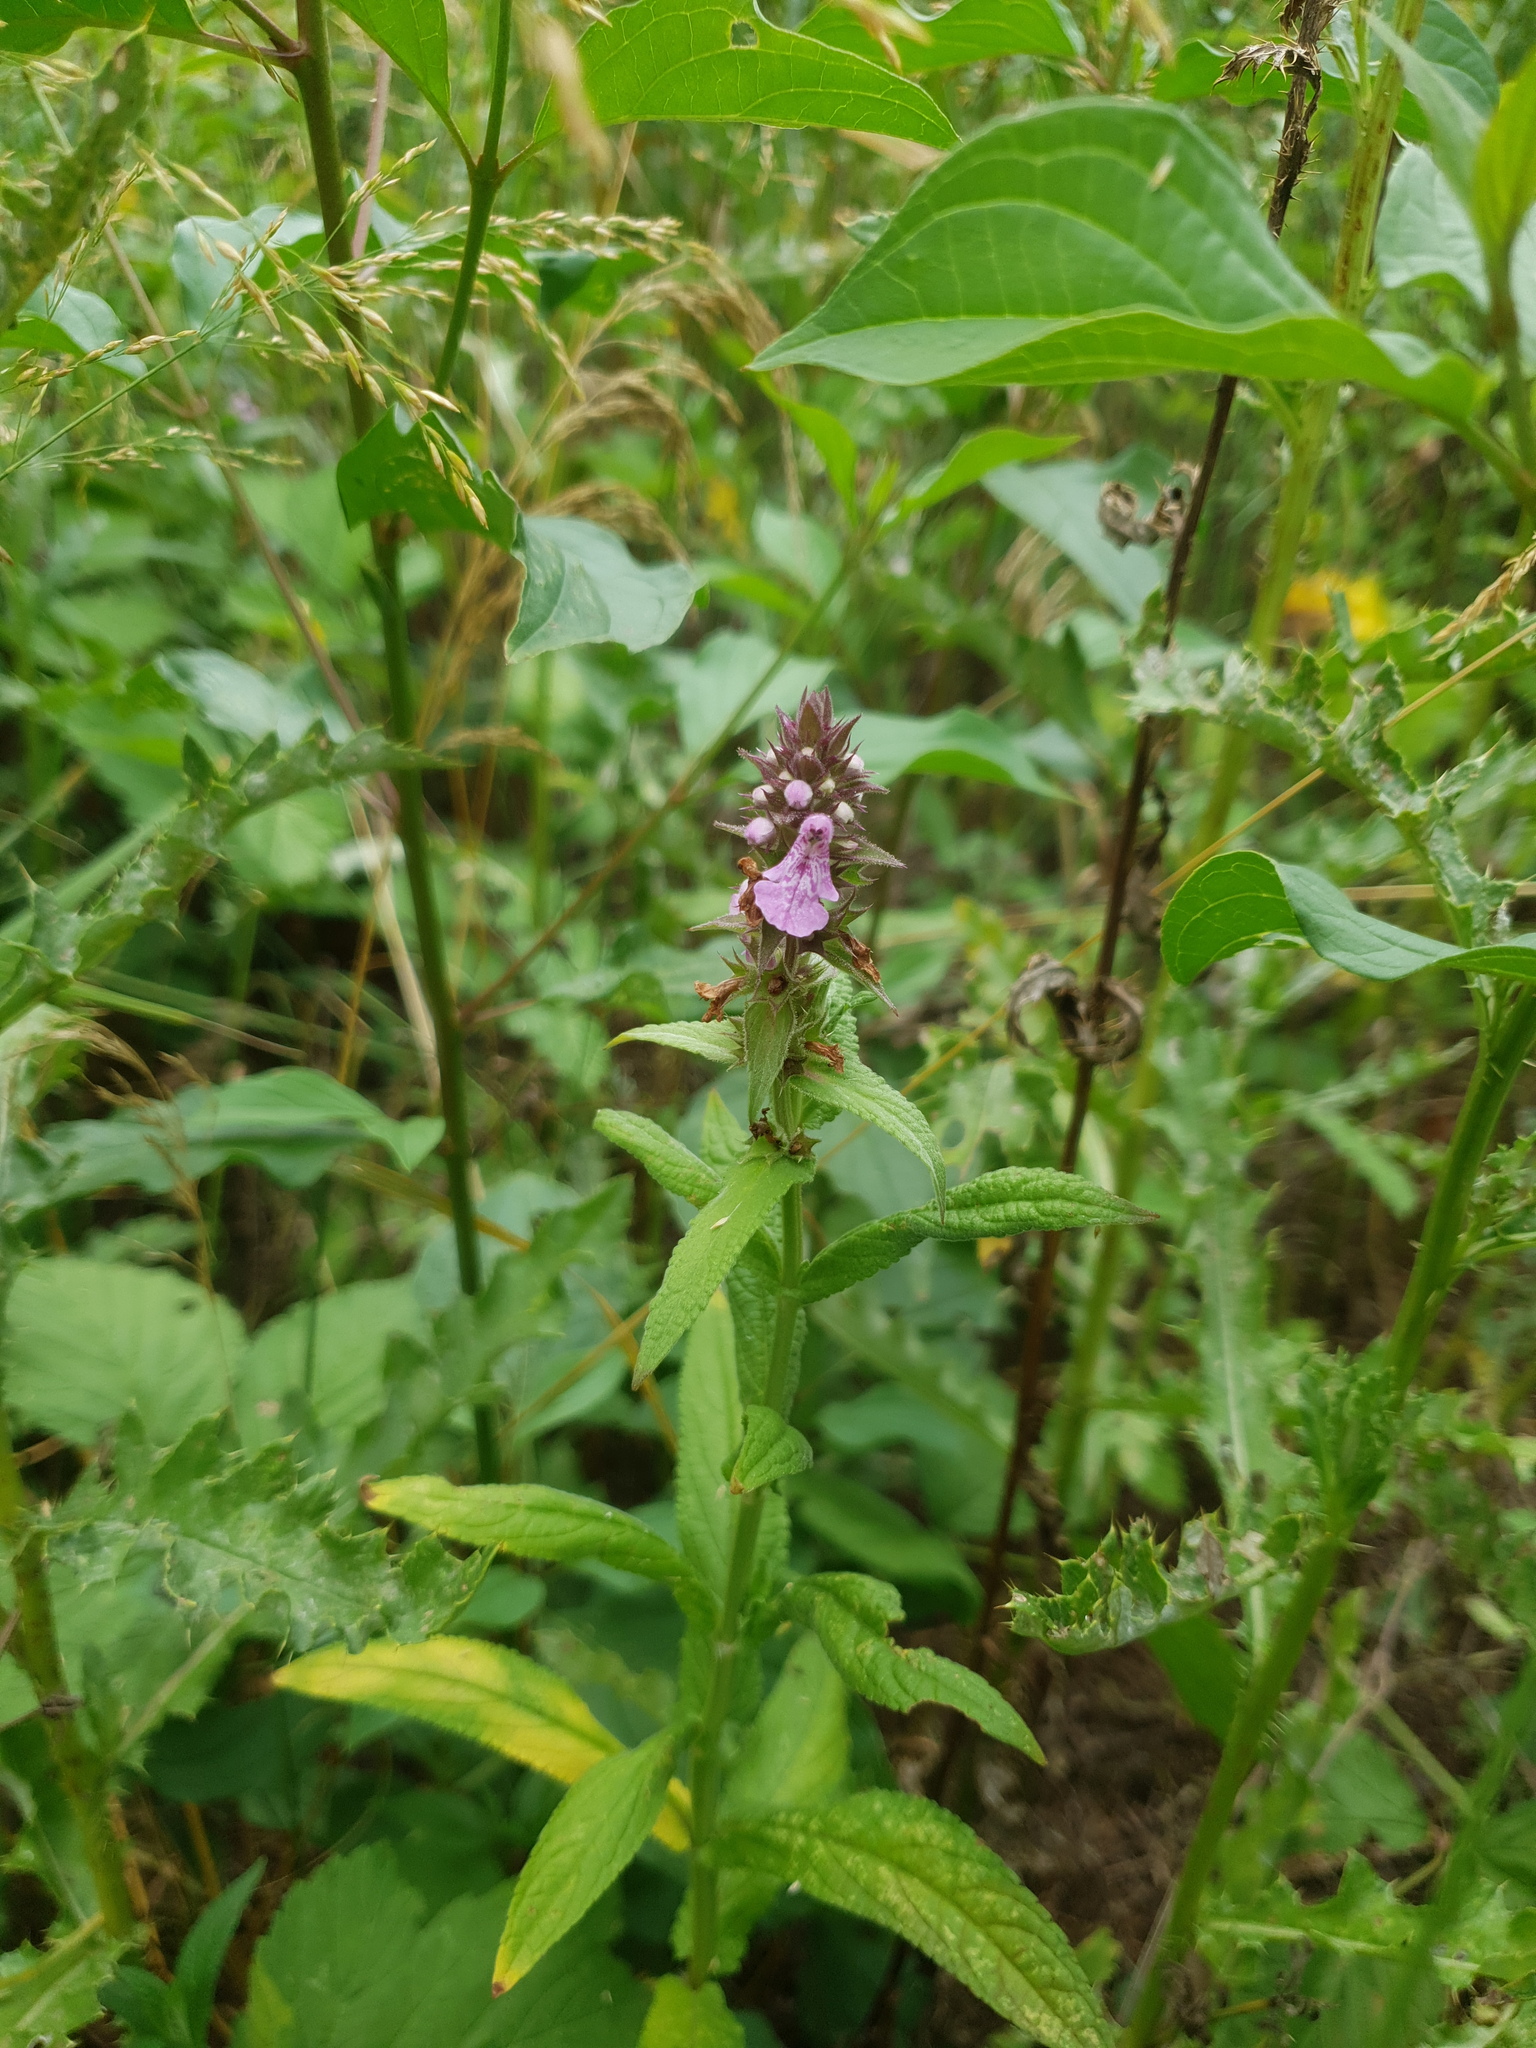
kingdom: Plantae
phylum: Tracheophyta
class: Magnoliopsida
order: Lamiales
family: Lamiaceae
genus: Stachys
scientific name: Stachys palustris
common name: Marsh woundwort
